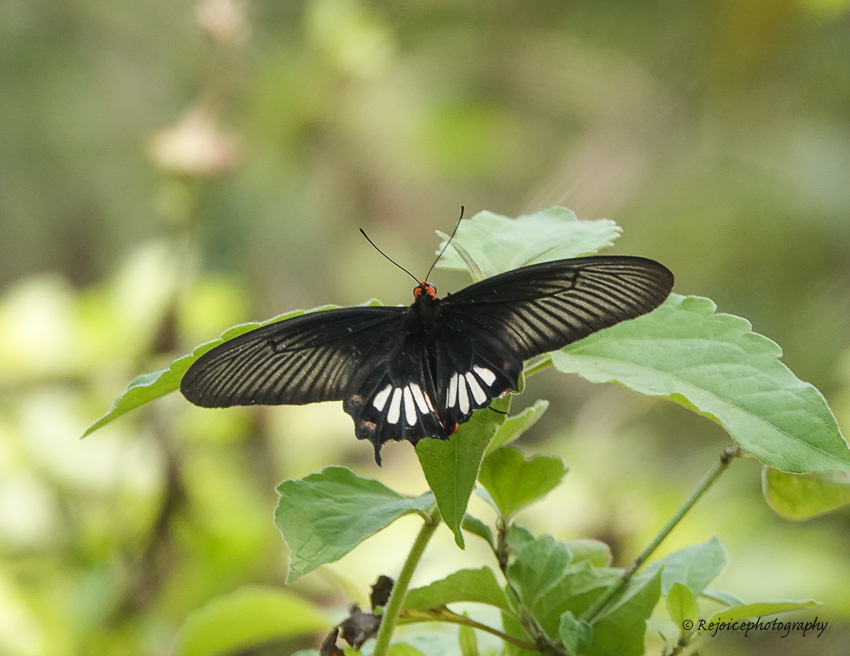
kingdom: Animalia
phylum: Arthropoda
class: Insecta
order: Lepidoptera
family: Papilionidae
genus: Pachliopta
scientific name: Pachliopta aristolochiae
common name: Common rose
